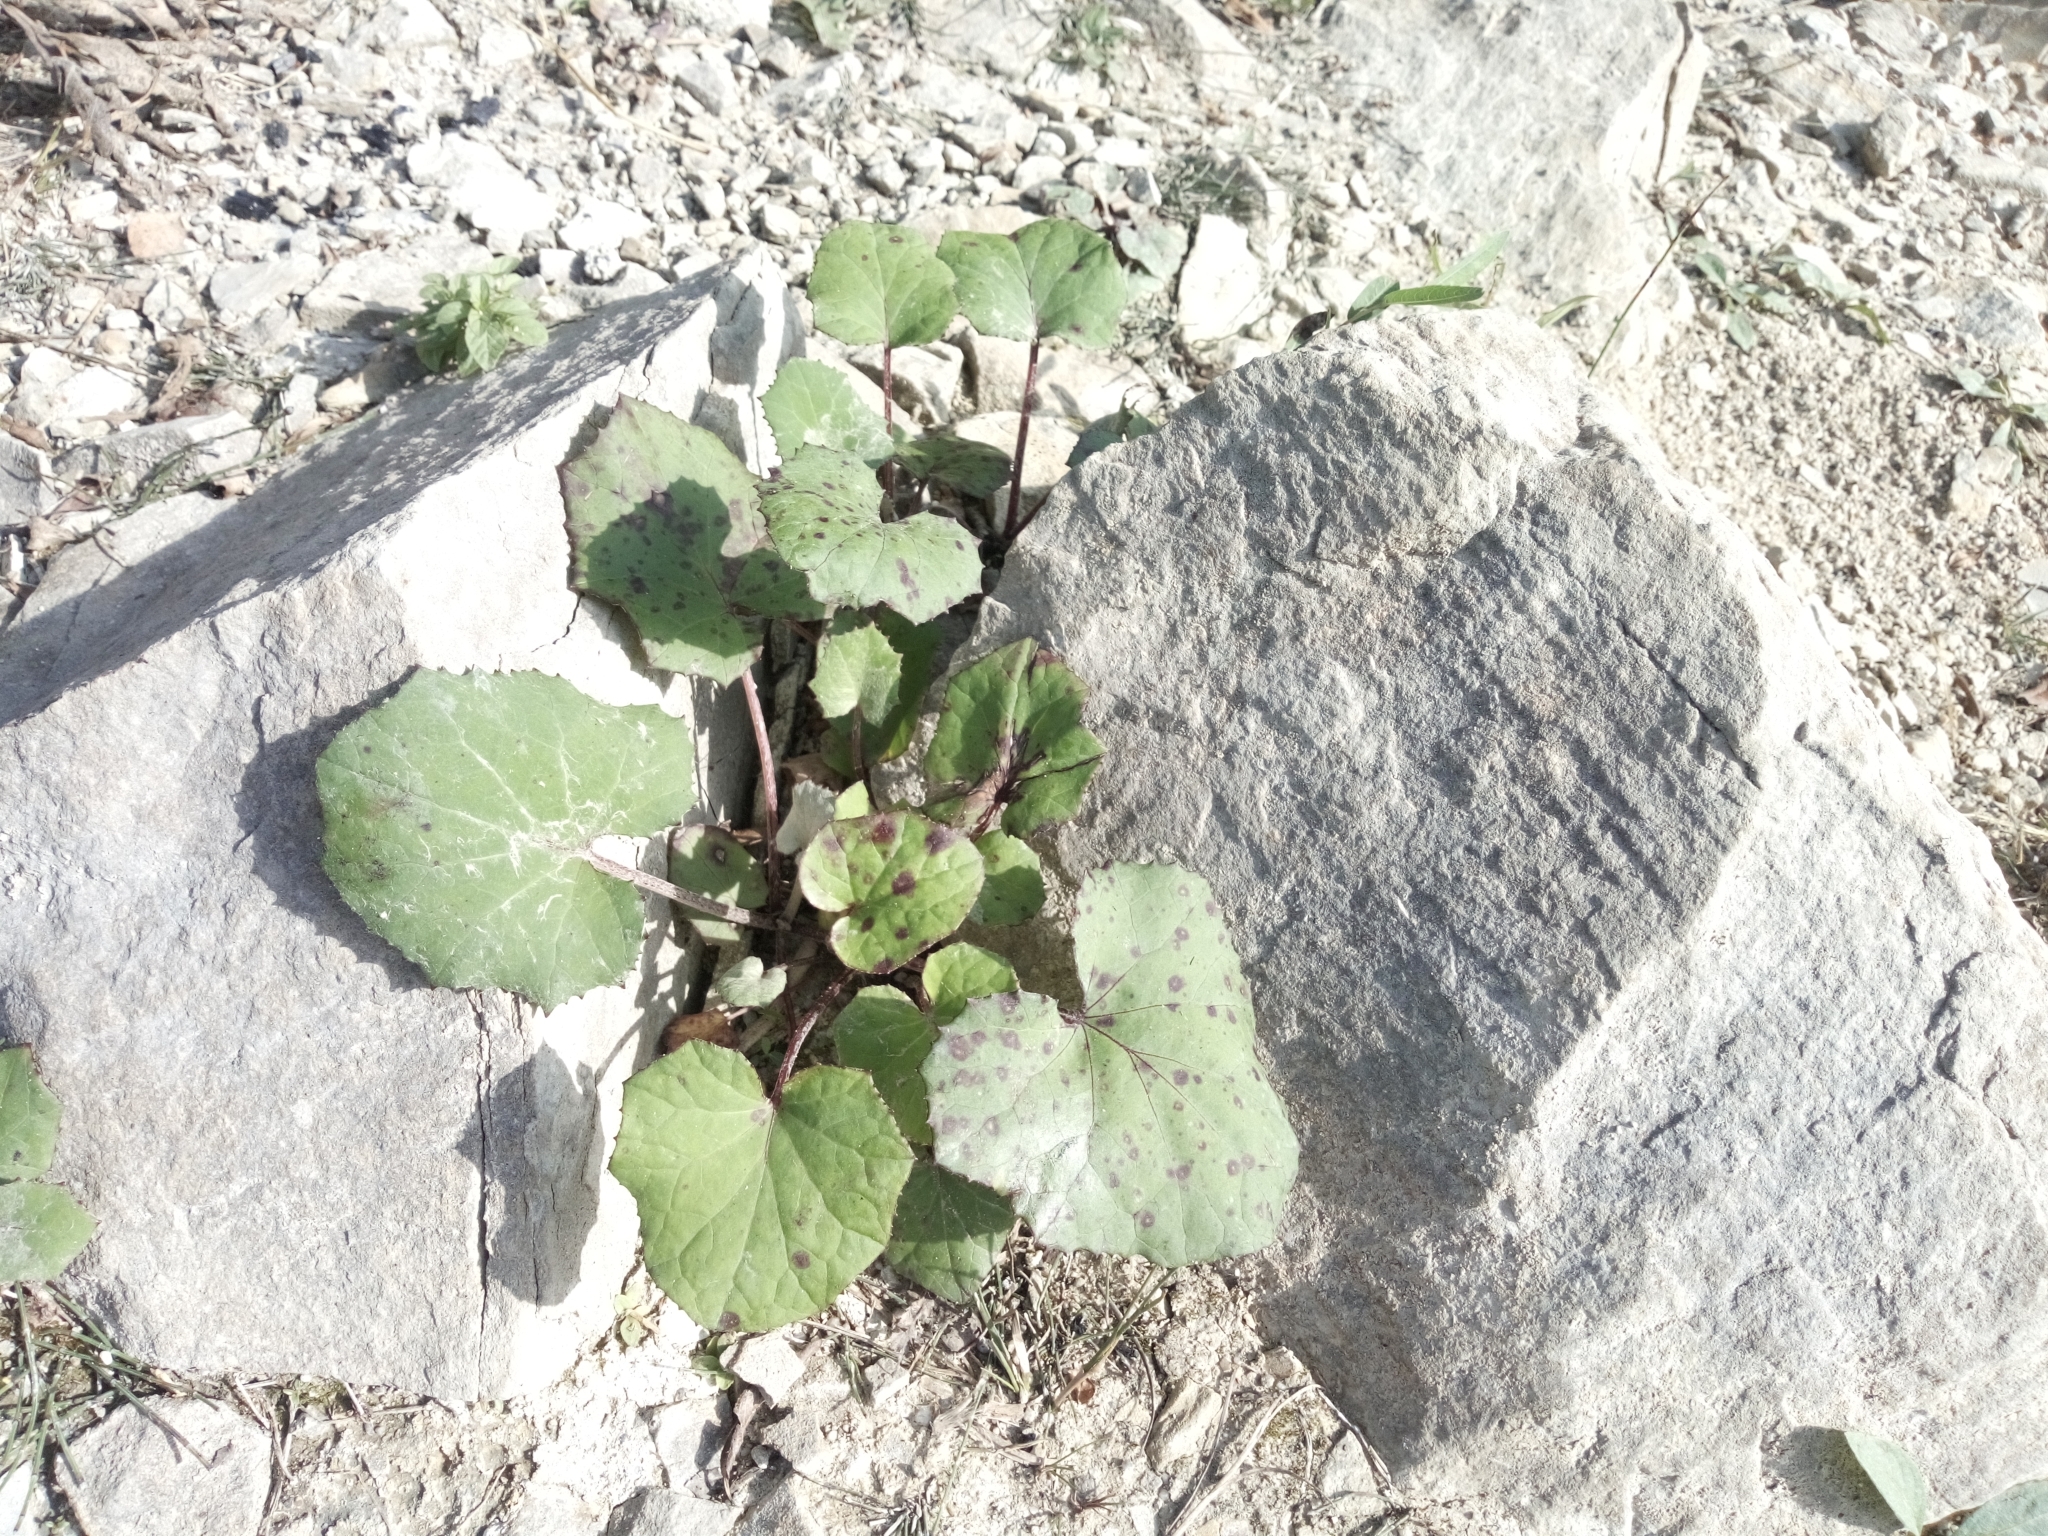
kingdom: Plantae
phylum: Tracheophyta
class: Magnoliopsida
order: Asterales
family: Asteraceae
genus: Tussilago
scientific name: Tussilago farfara
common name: Coltsfoot
